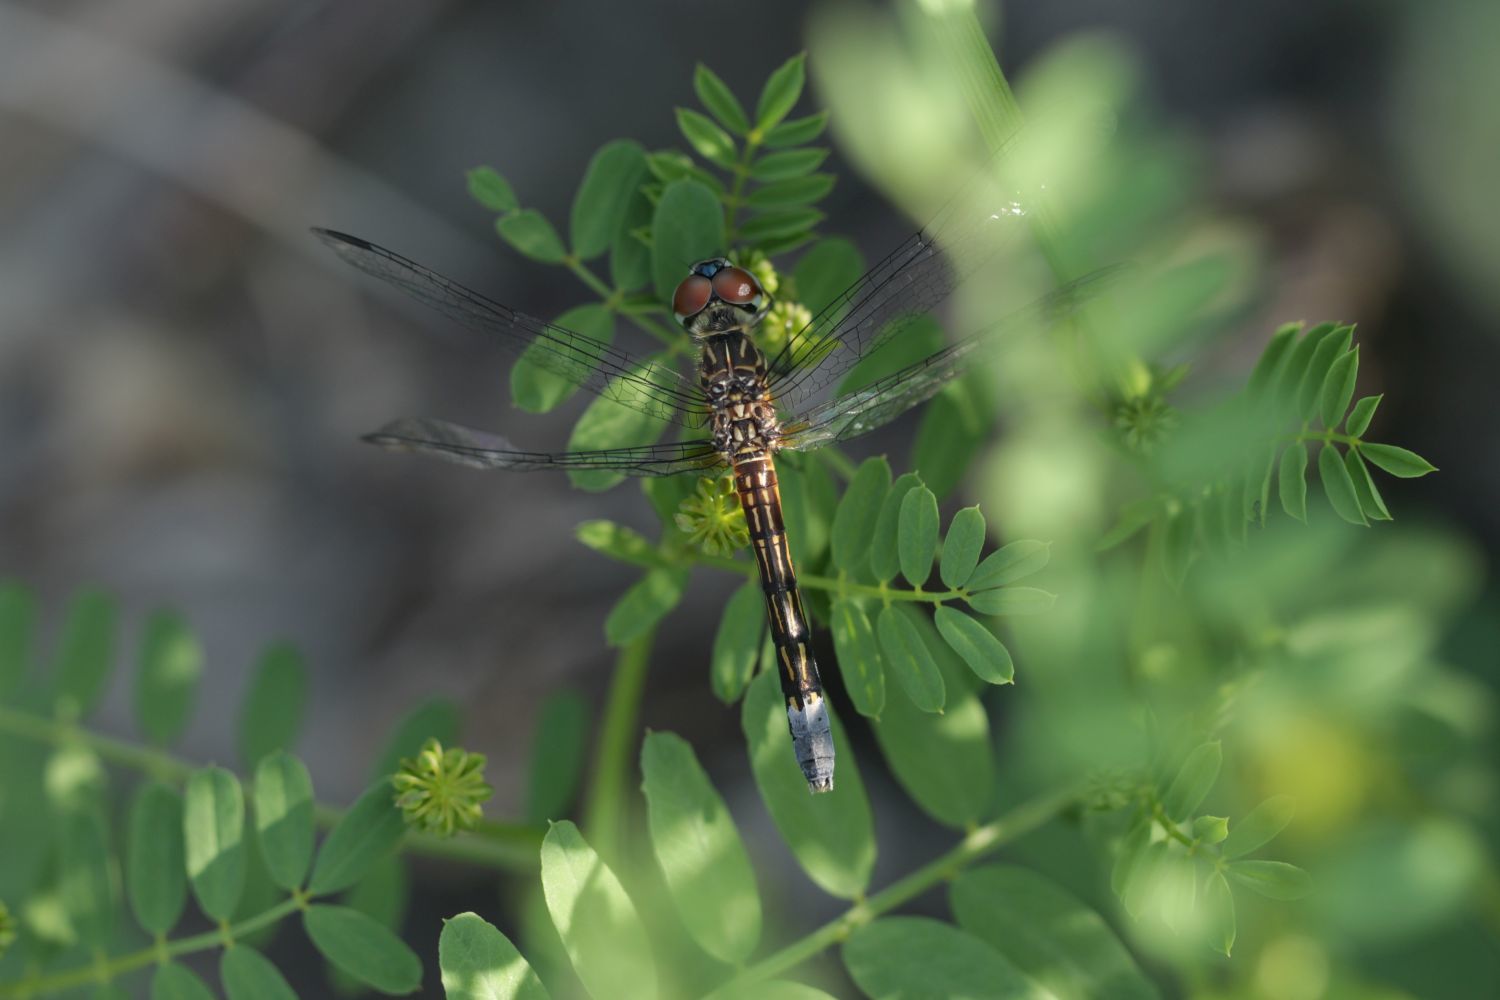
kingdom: Animalia
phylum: Arthropoda
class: Insecta
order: Odonata
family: Libellulidae
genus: Pachydiplax
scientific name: Pachydiplax longipennis
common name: Blue dasher
